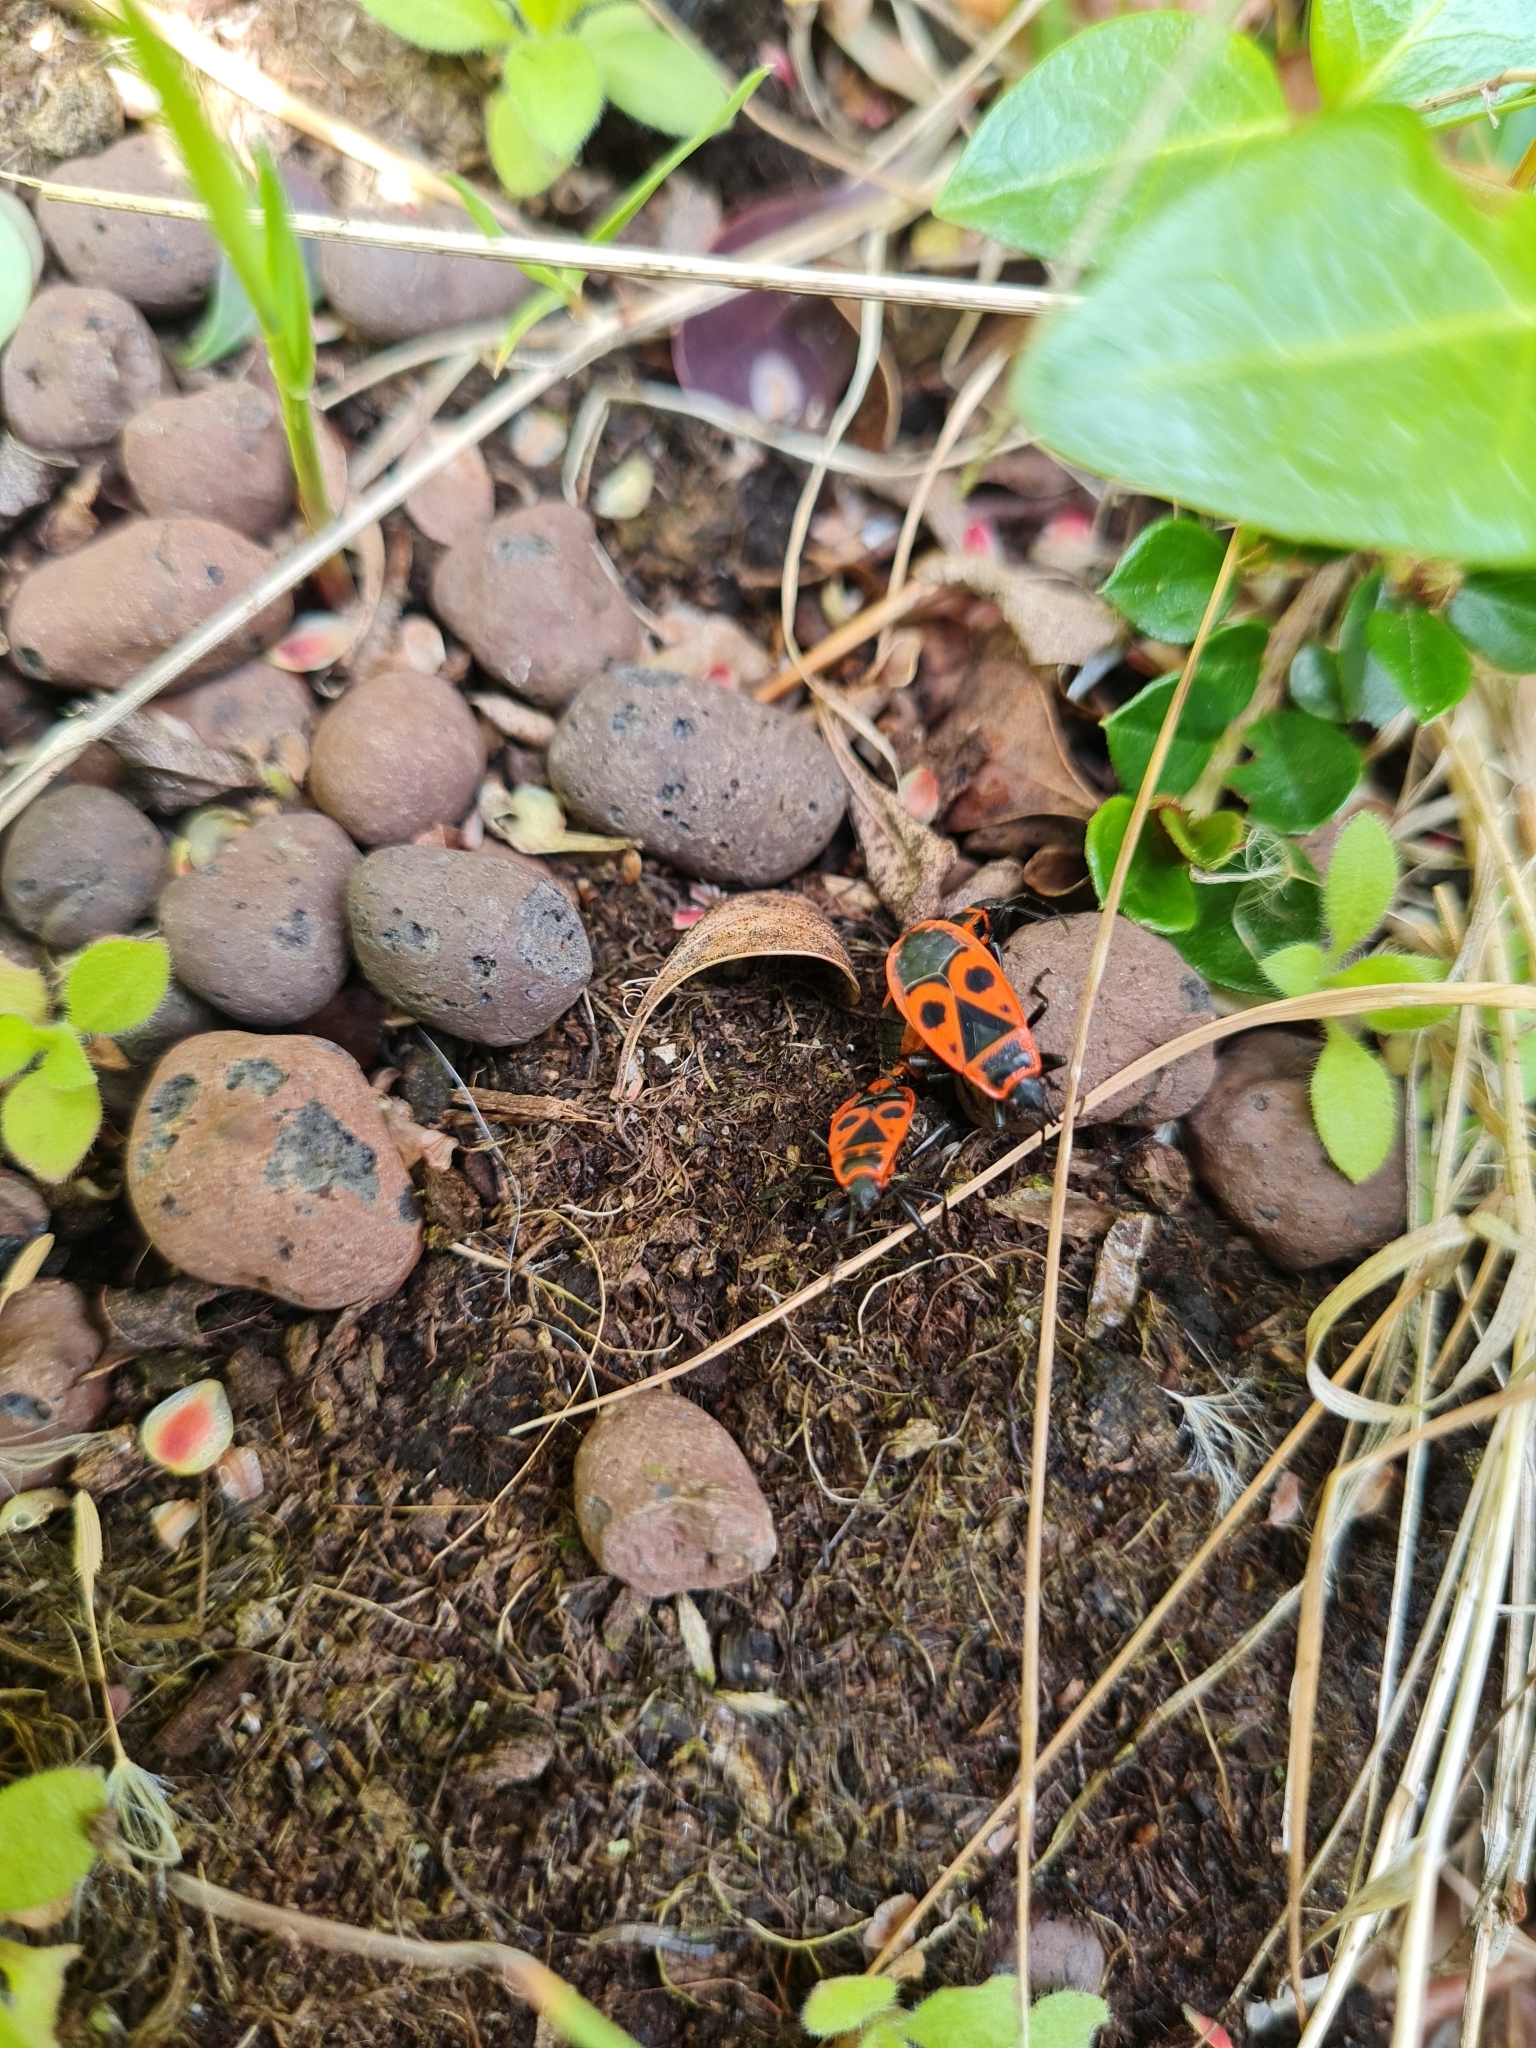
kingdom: Animalia
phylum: Arthropoda
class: Insecta
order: Hemiptera
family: Pyrrhocoridae
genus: Pyrrhocoris
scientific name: Pyrrhocoris apterus
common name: Firebug
